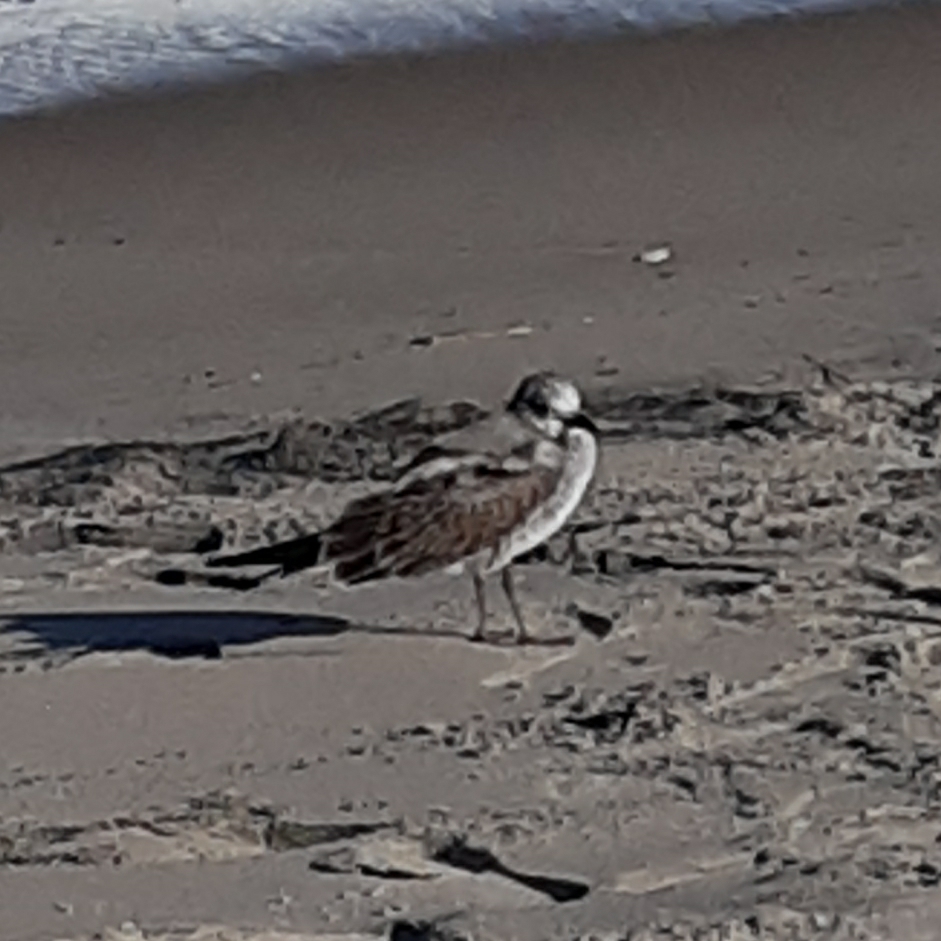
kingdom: Animalia
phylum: Chordata
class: Aves
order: Charadriiformes
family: Laridae
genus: Leucophaeus
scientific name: Leucophaeus atricilla
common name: Laughing gull
